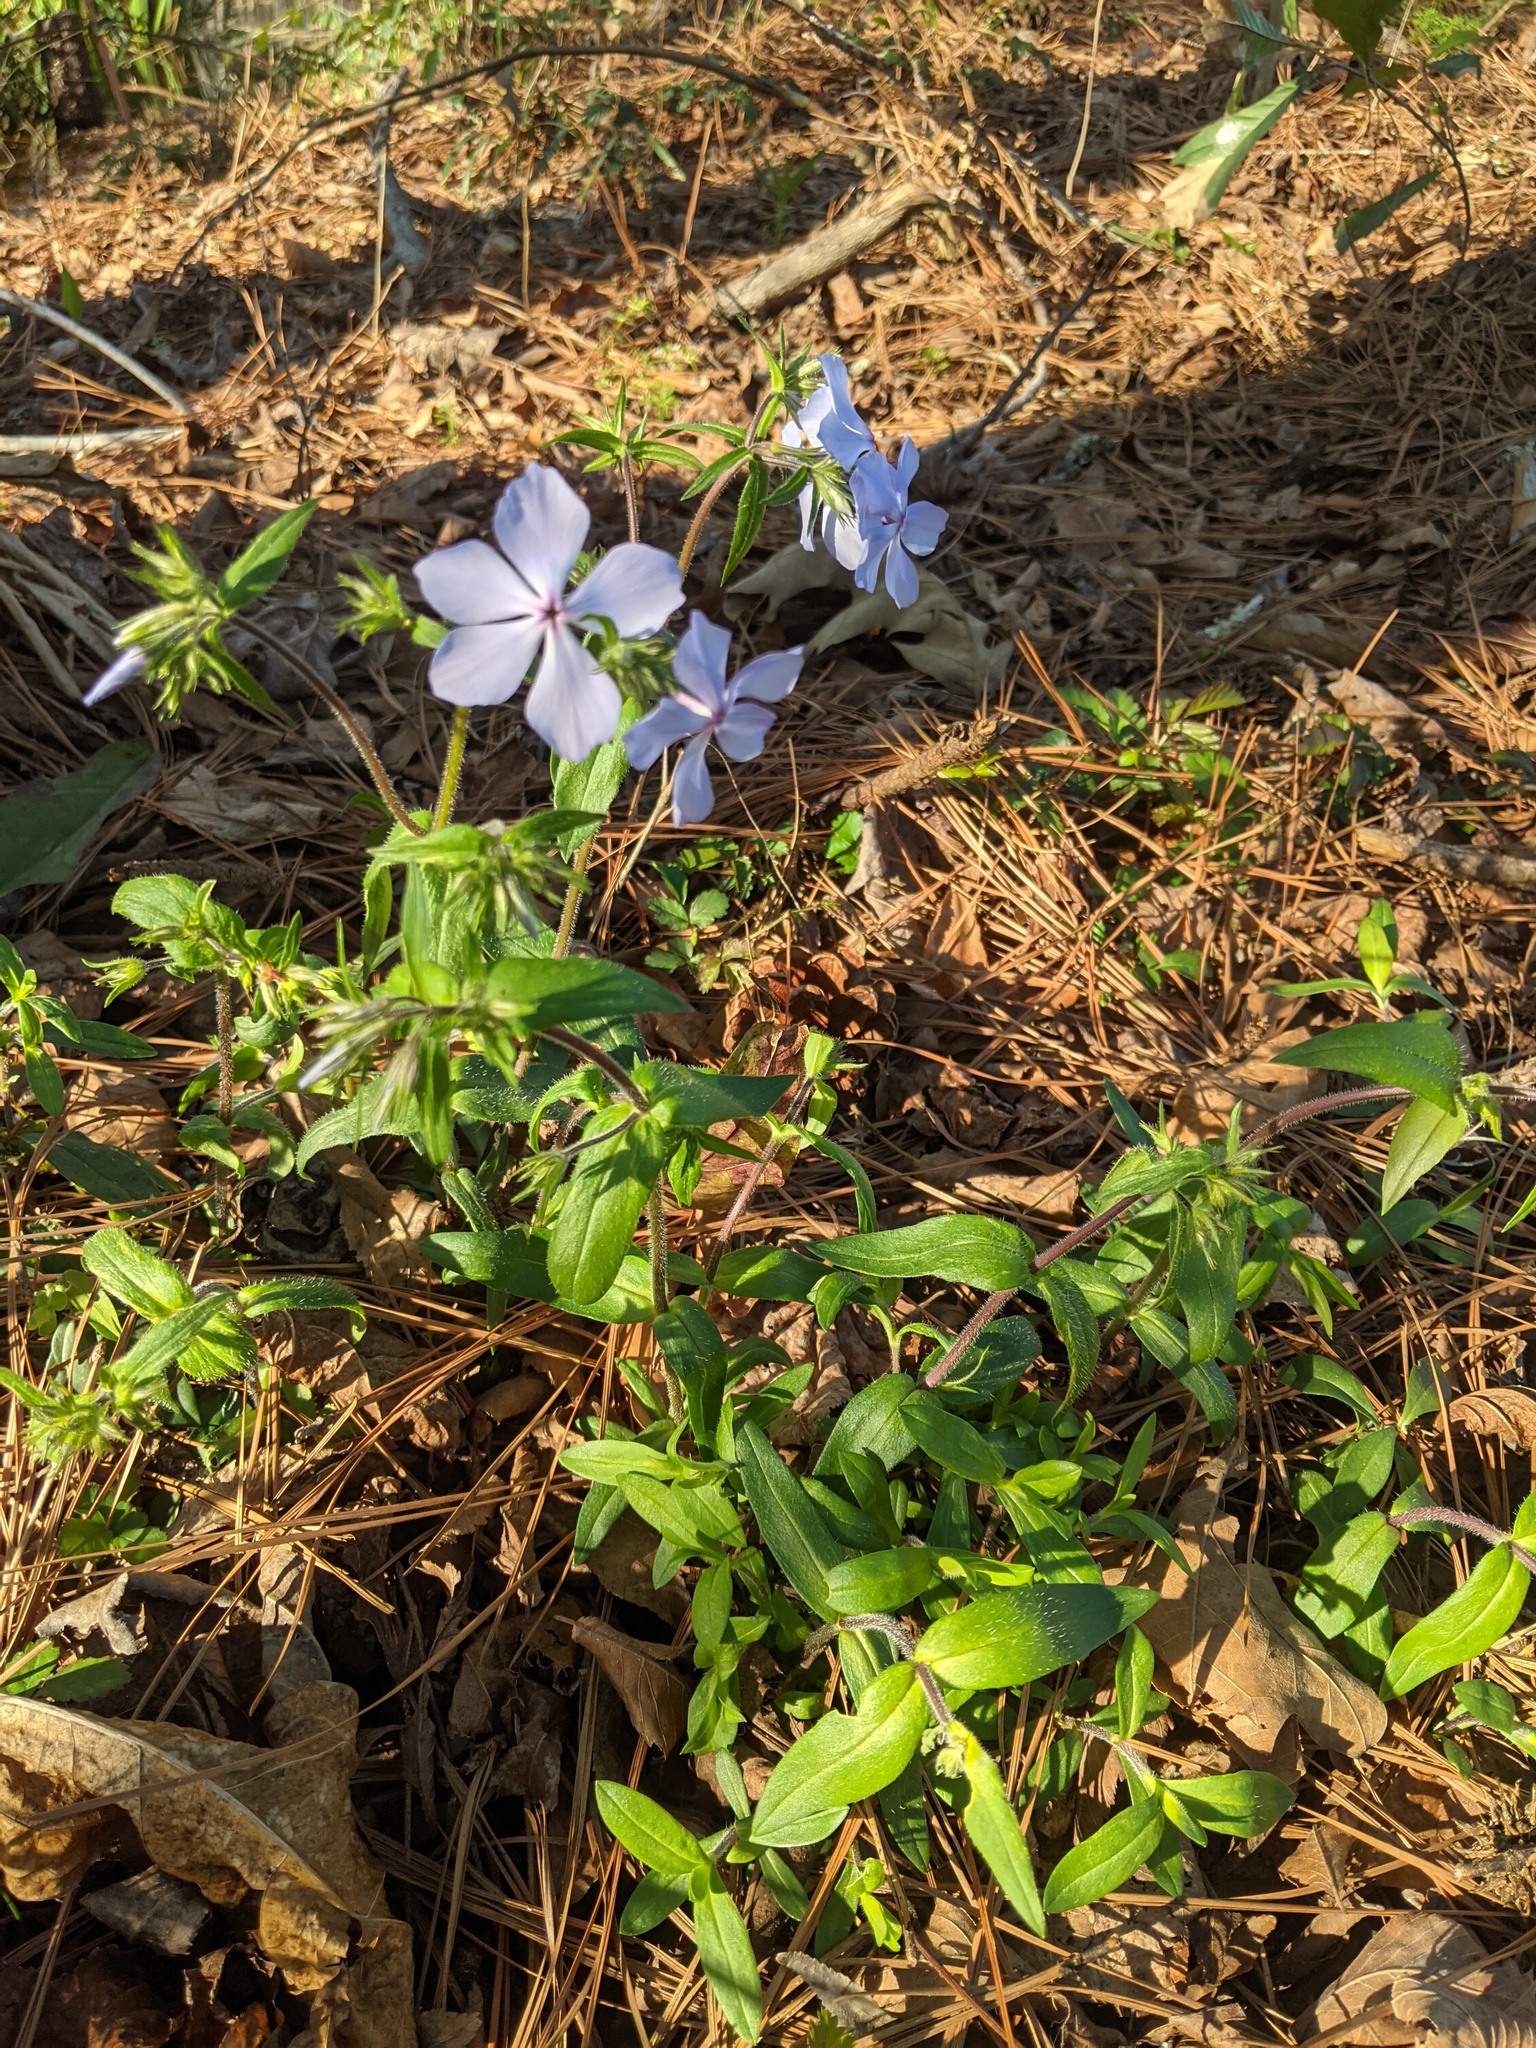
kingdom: Plantae
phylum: Tracheophyta
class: Magnoliopsida
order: Ericales
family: Polemoniaceae
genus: Phlox
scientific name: Phlox divaricata
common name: Blue phlox
